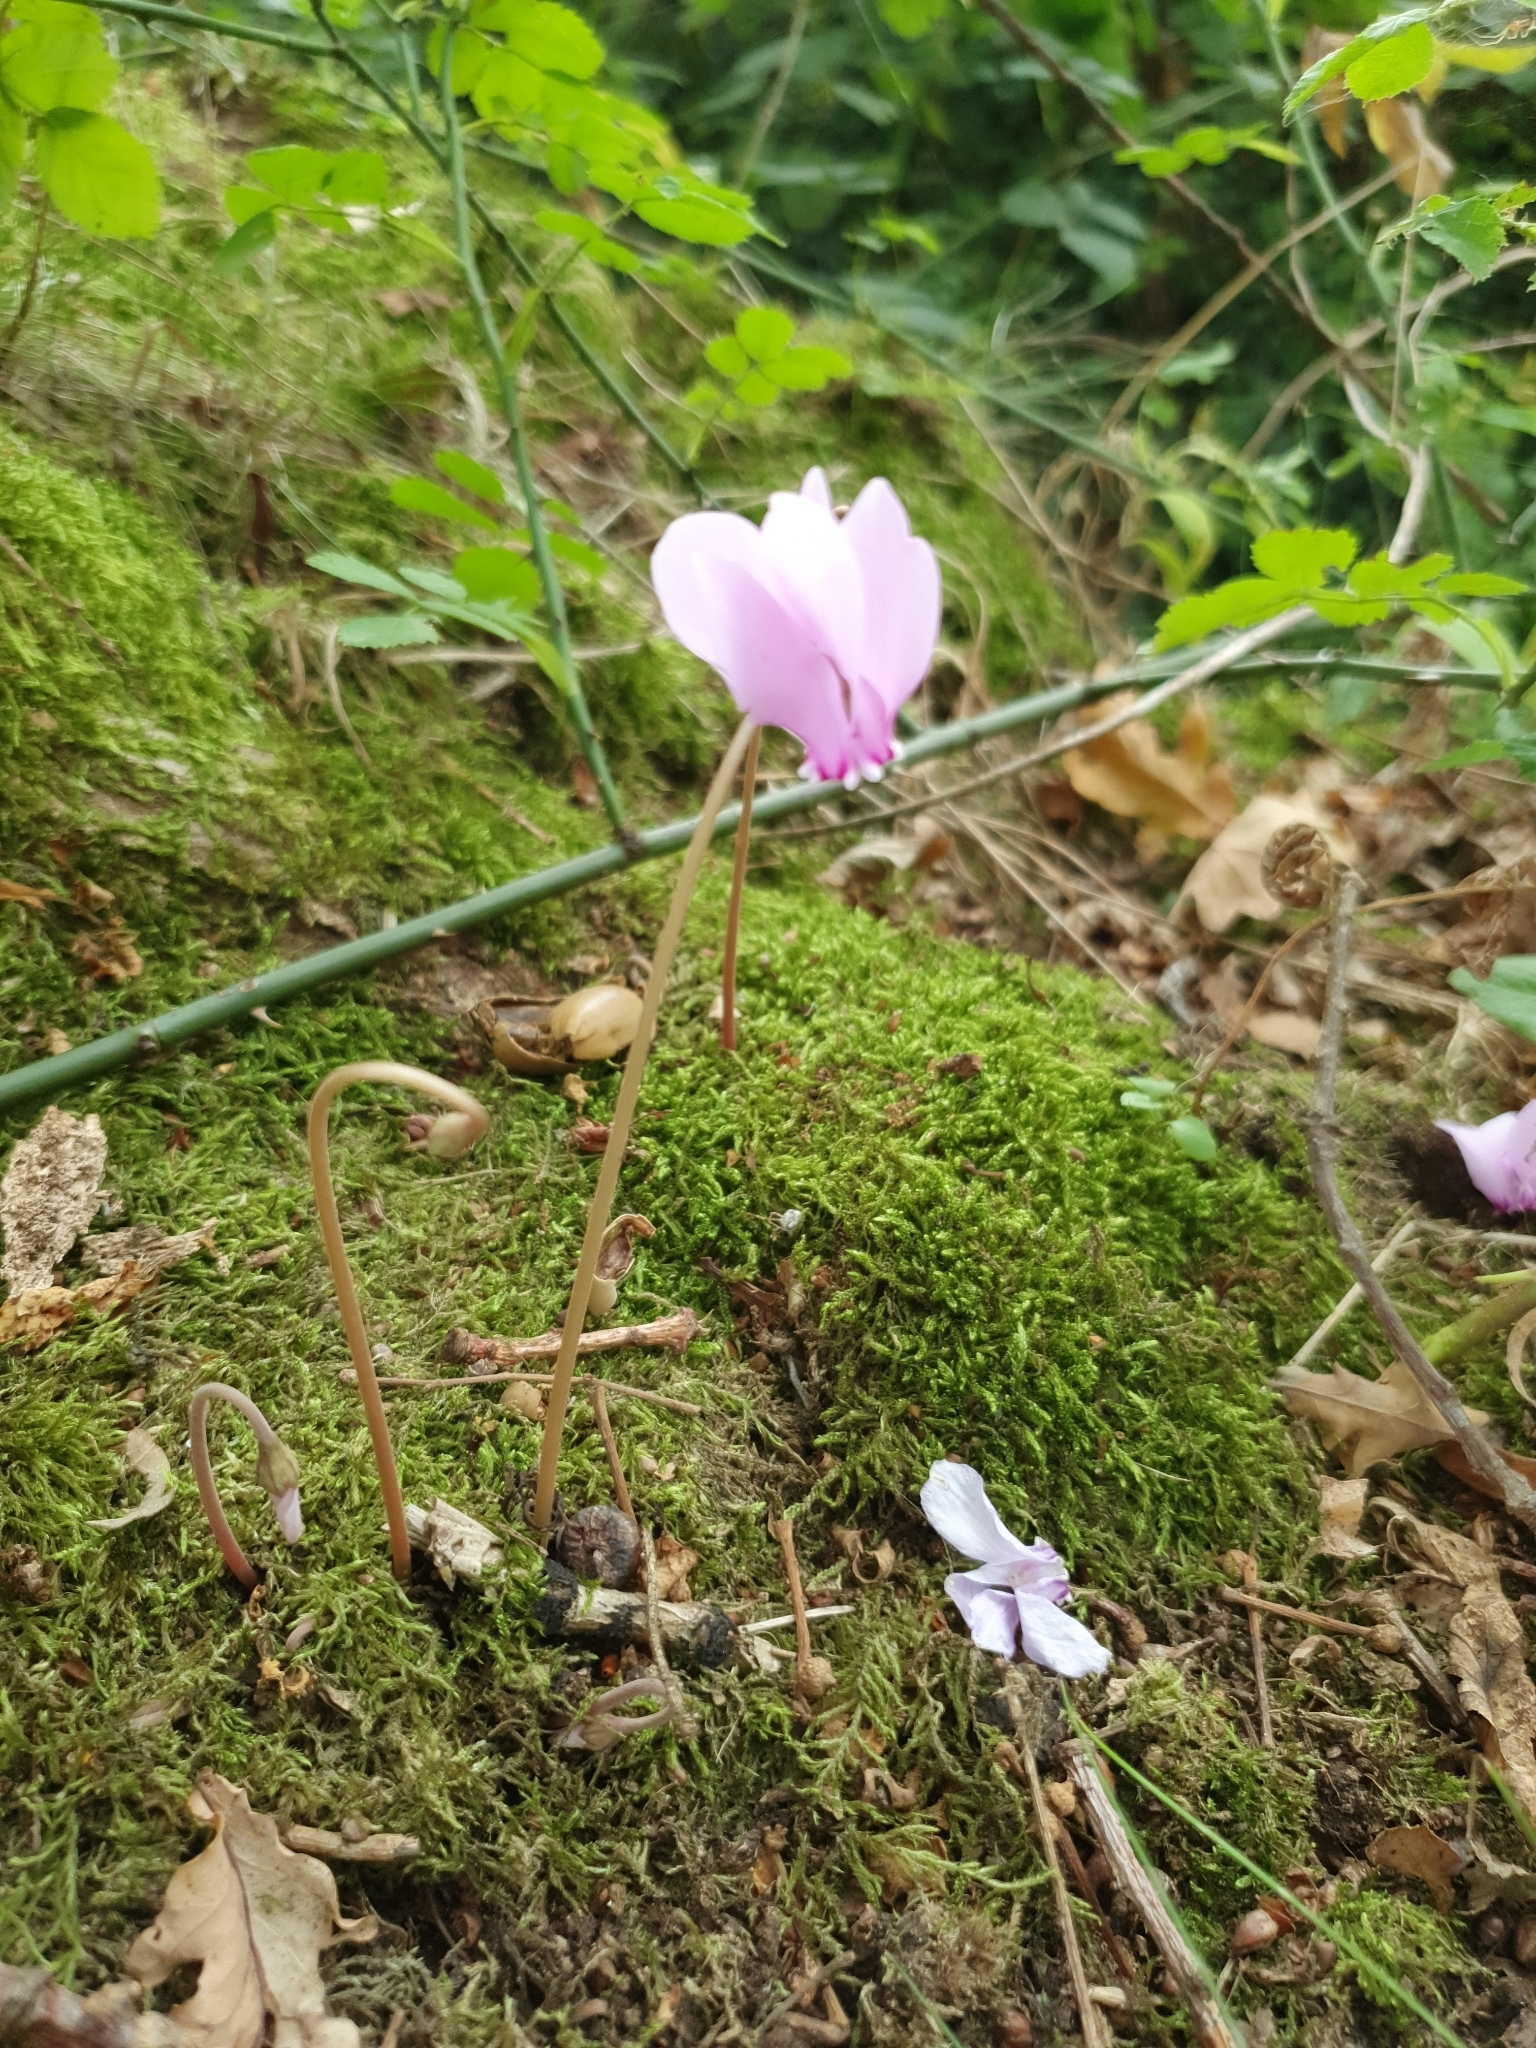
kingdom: Plantae
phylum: Tracheophyta
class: Magnoliopsida
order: Ericales
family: Primulaceae
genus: Cyclamen
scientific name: Cyclamen hederifolium
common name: Sowbread
